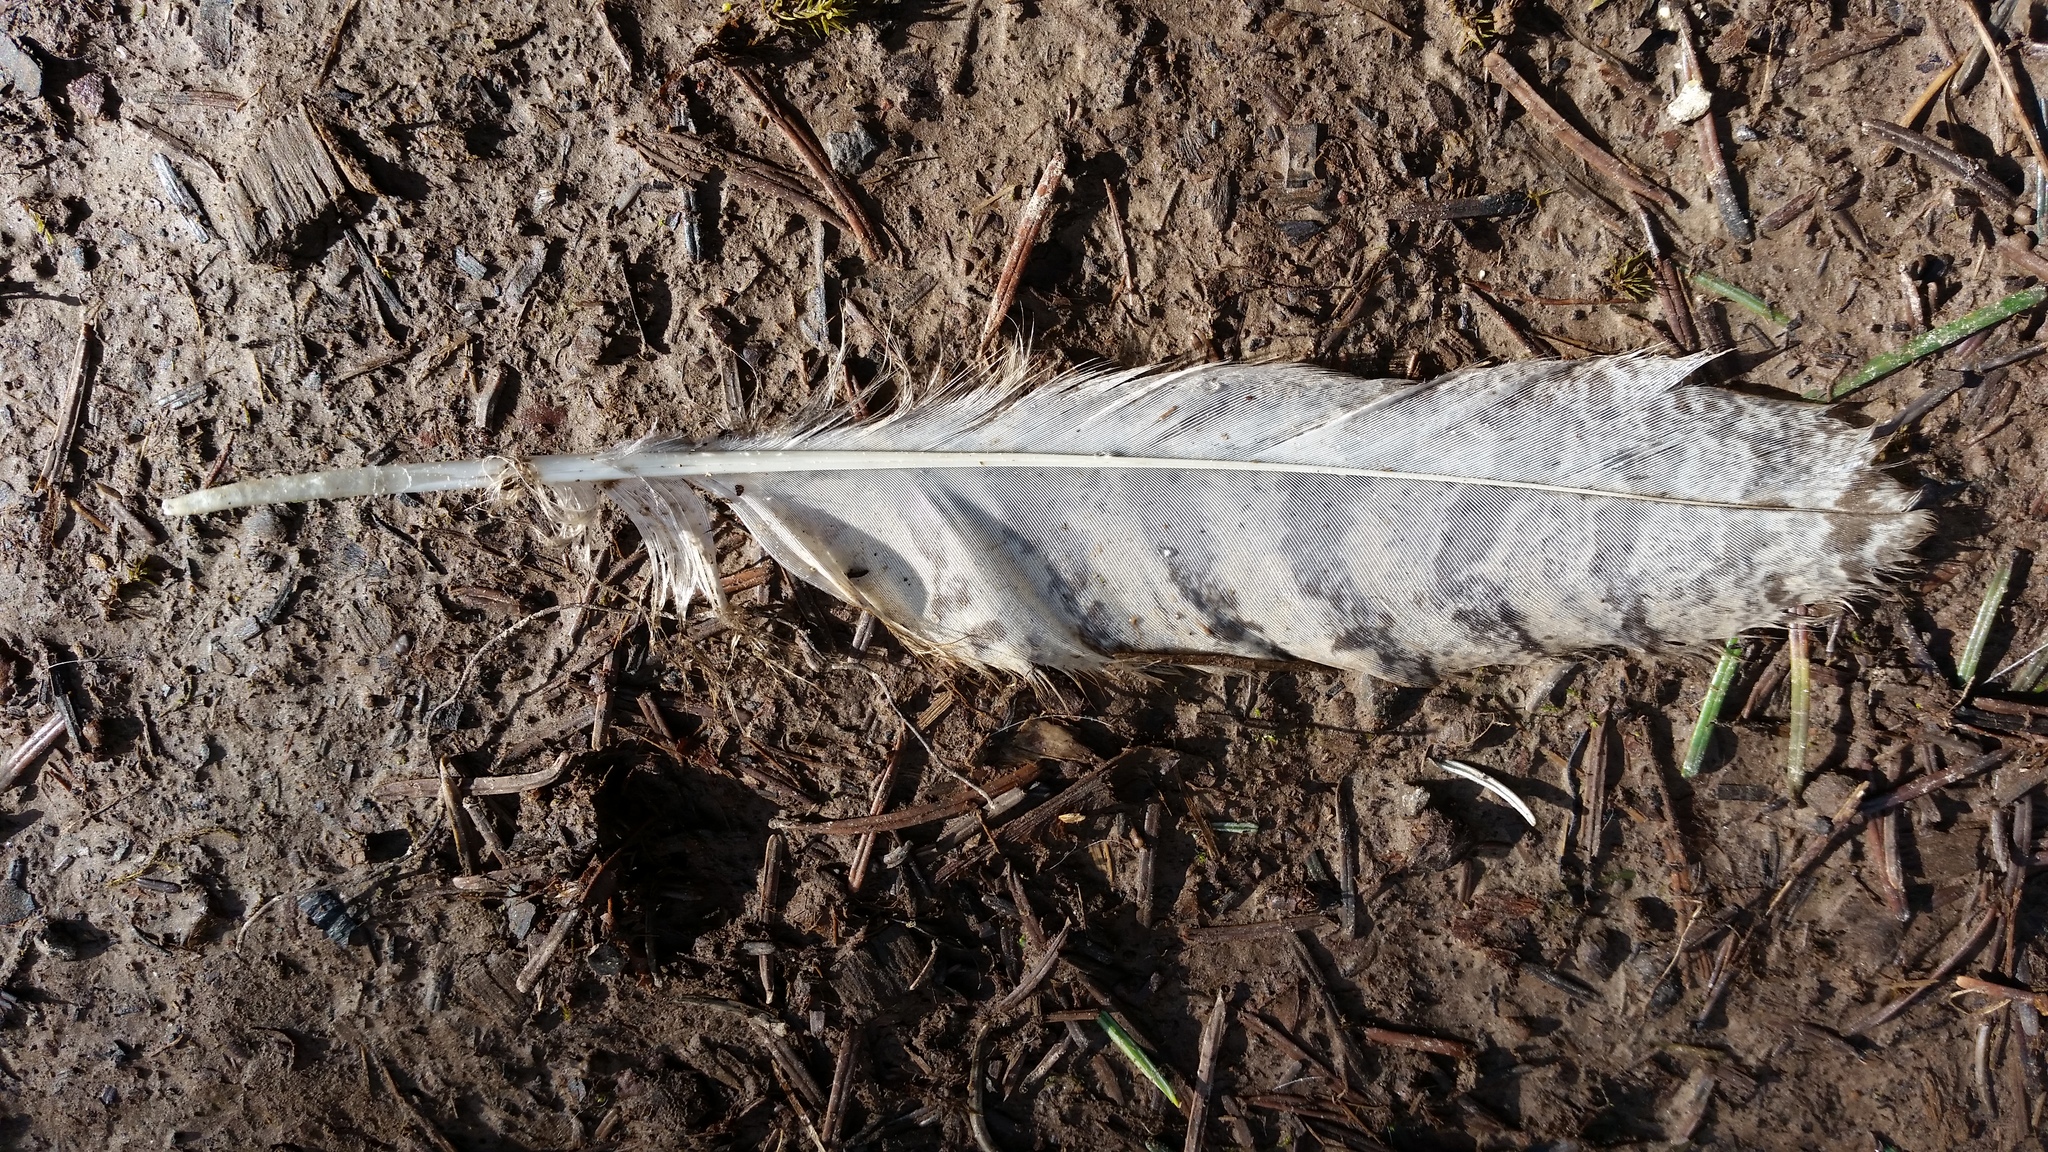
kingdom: Animalia
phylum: Chordata
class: Aves
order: Strigiformes
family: Strigidae
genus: Bubo
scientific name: Bubo virginianus
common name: Great horned owl
